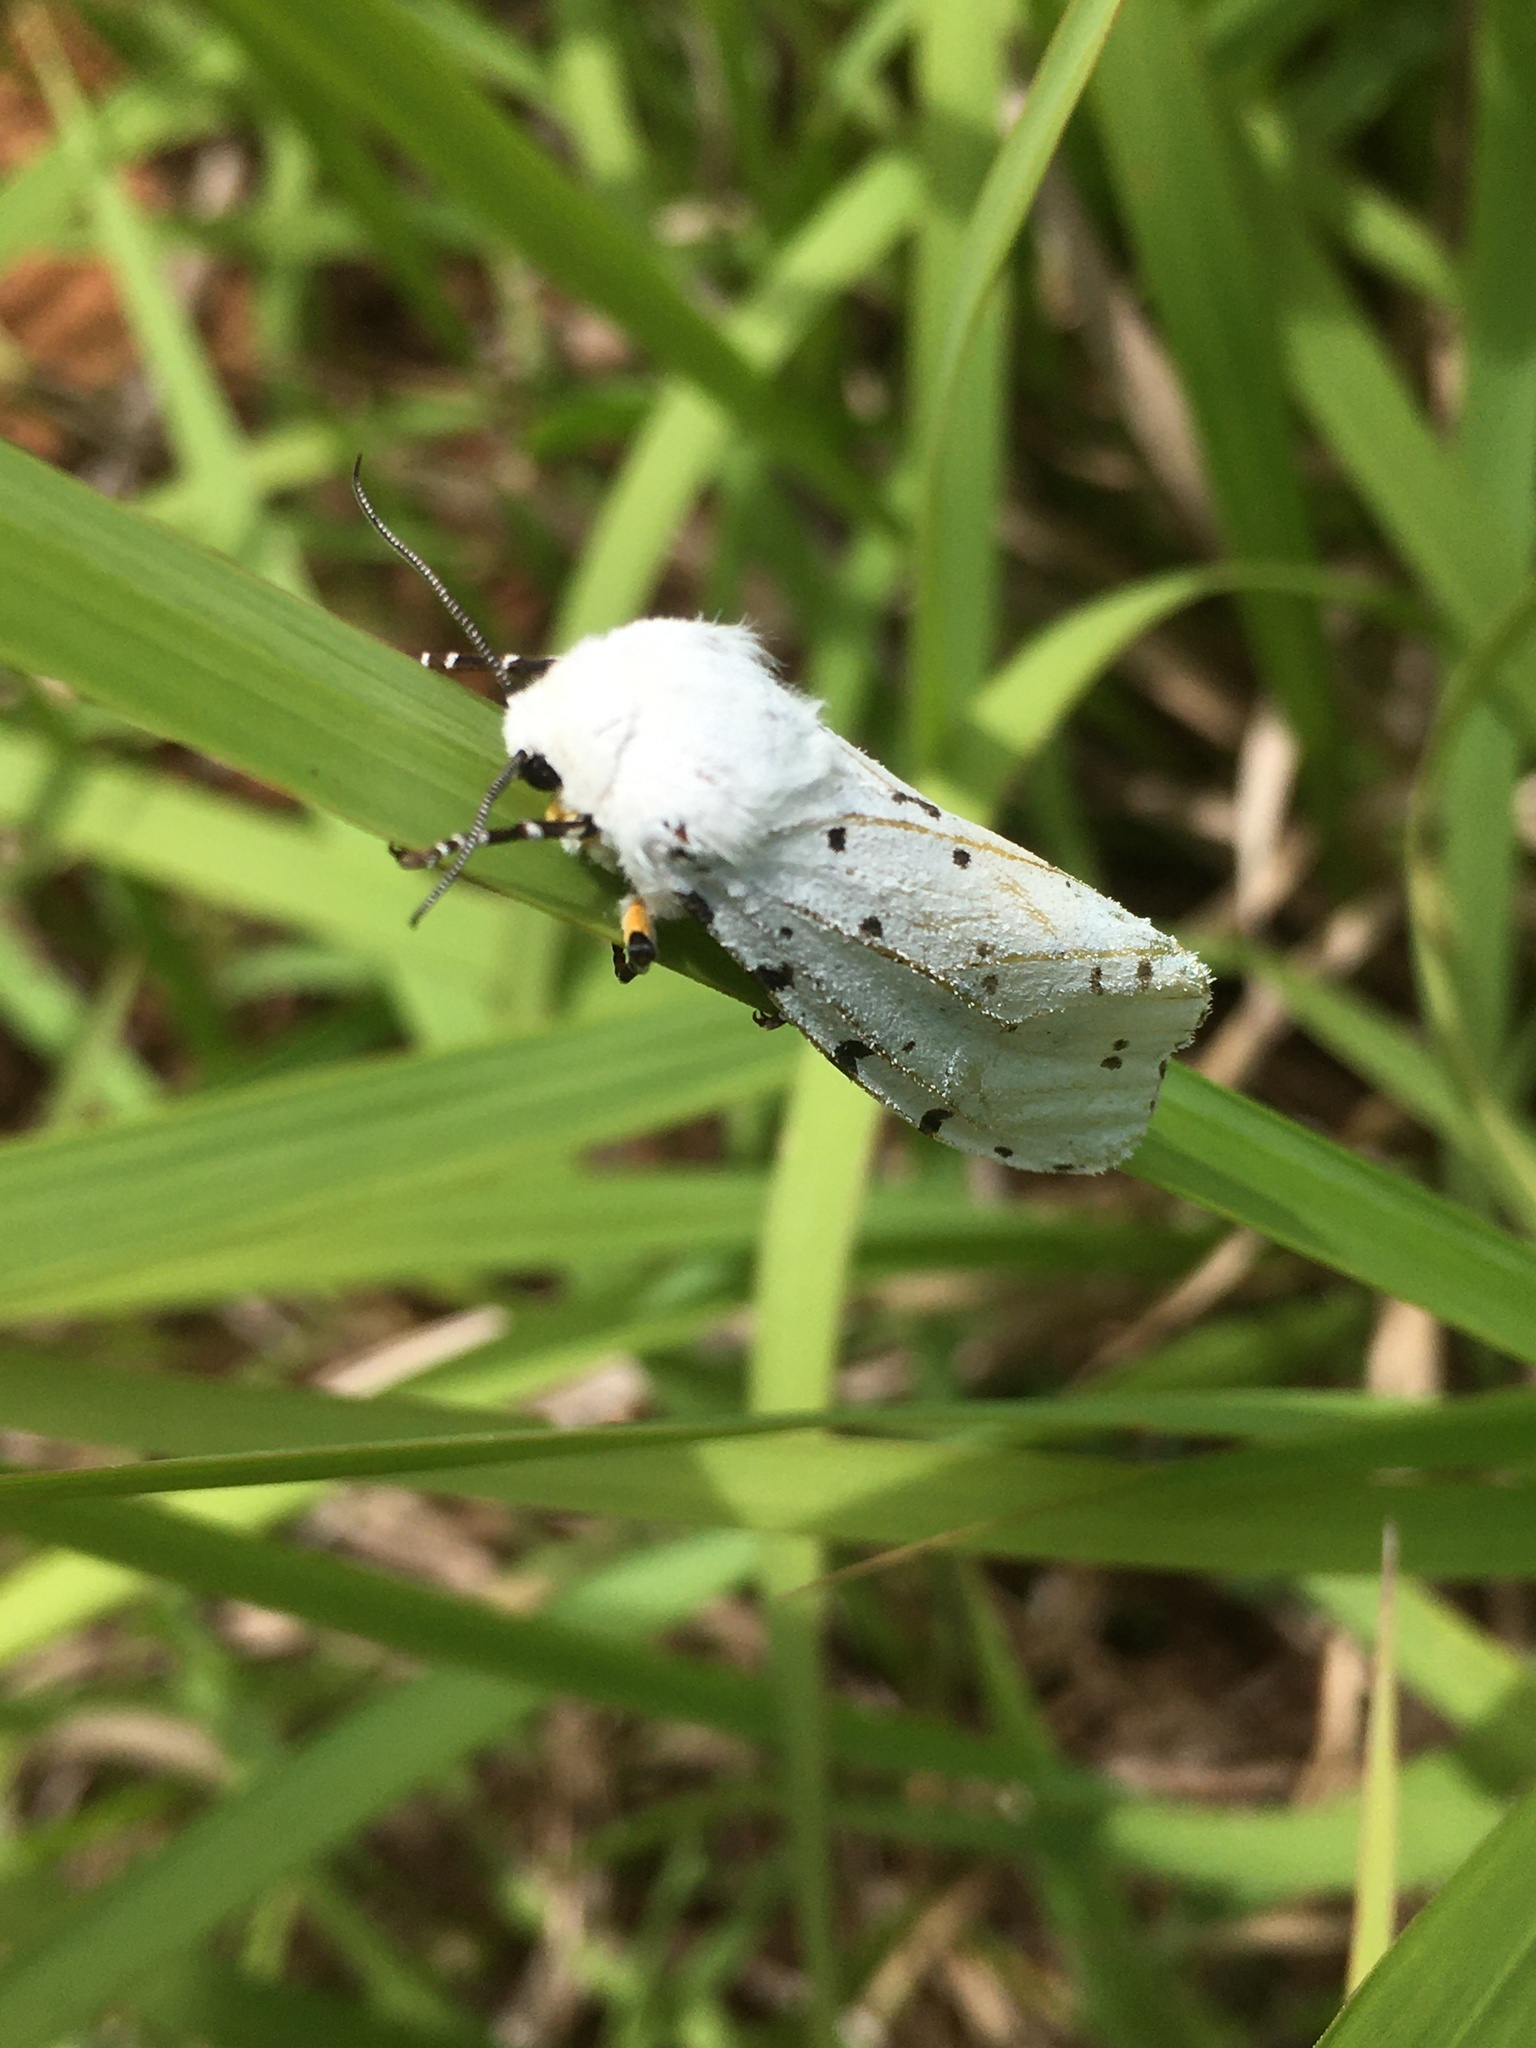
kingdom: Animalia
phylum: Arthropoda
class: Insecta
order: Lepidoptera
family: Erebidae
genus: Estigmene
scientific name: Estigmene acrea
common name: Salt marsh moth
